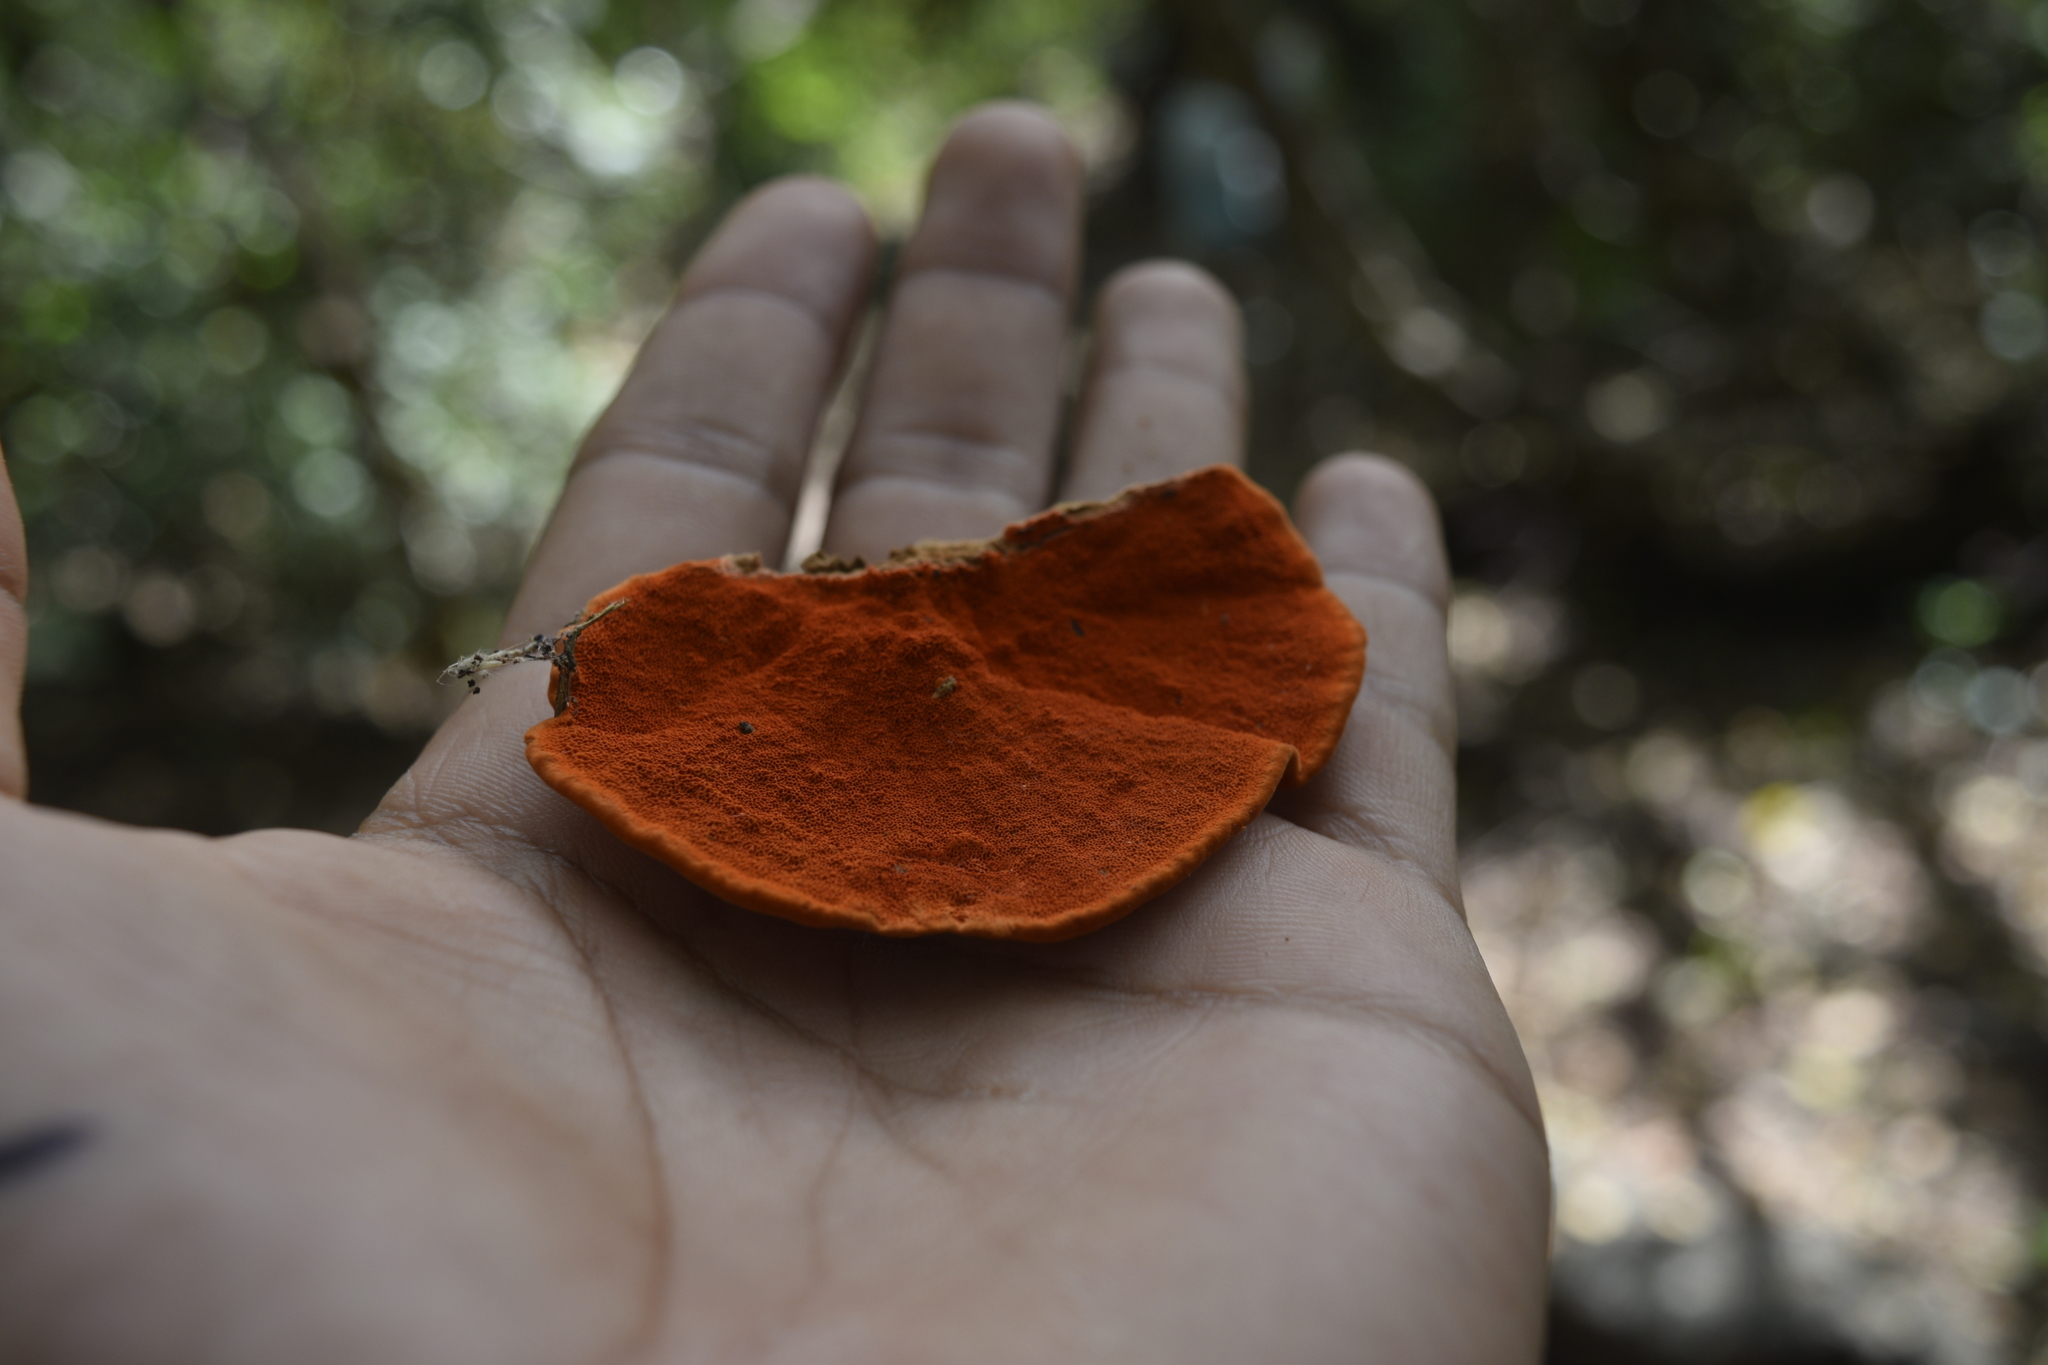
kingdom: Fungi
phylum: Basidiomycota
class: Agaricomycetes
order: Polyporales
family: Polyporaceae
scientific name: Polyporaceae
